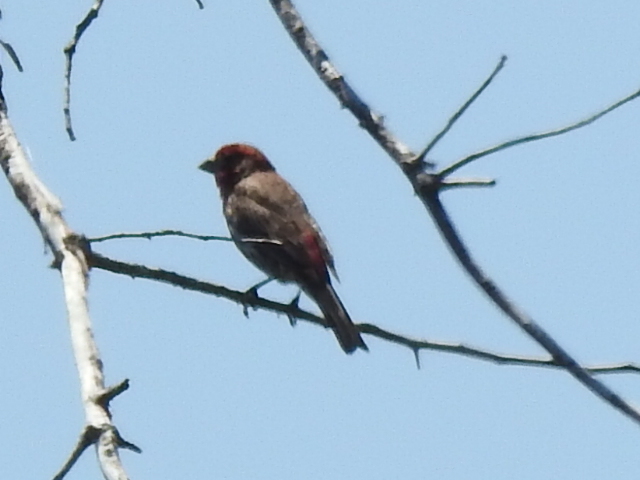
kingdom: Animalia
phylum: Chordata
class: Aves
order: Passeriformes
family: Fringillidae
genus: Haemorhous
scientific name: Haemorhous mexicanus
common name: House finch
